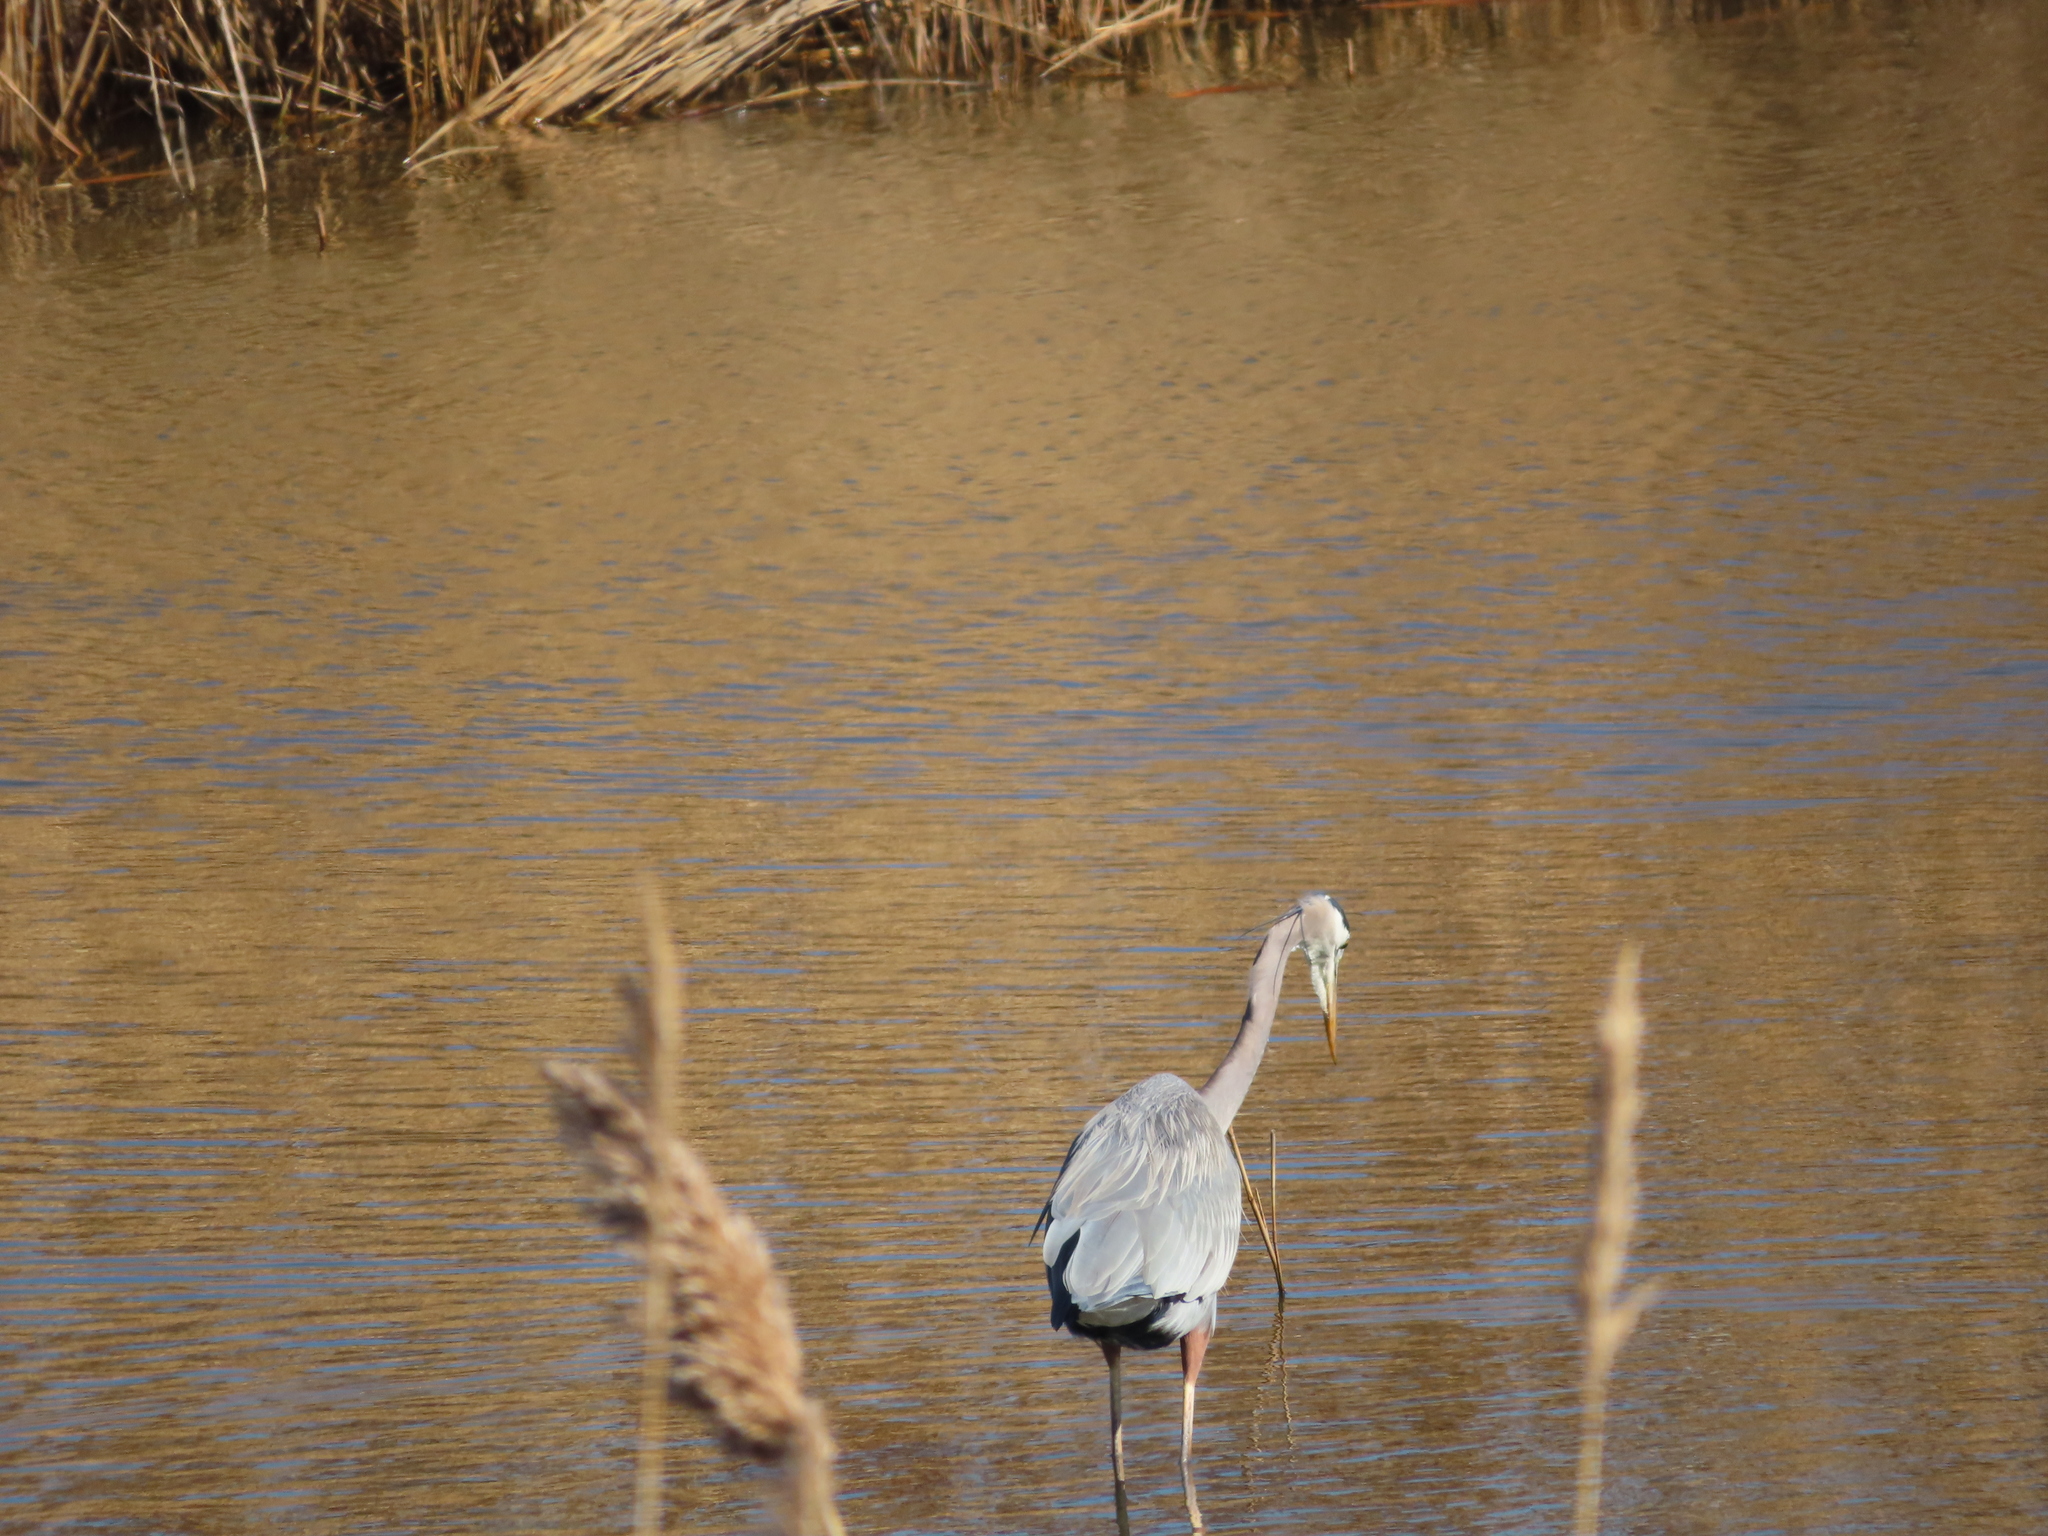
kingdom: Animalia
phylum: Chordata
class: Aves
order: Pelecaniformes
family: Ardeidae
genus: Ardea
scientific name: Ardea herodias
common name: Great blue heron
